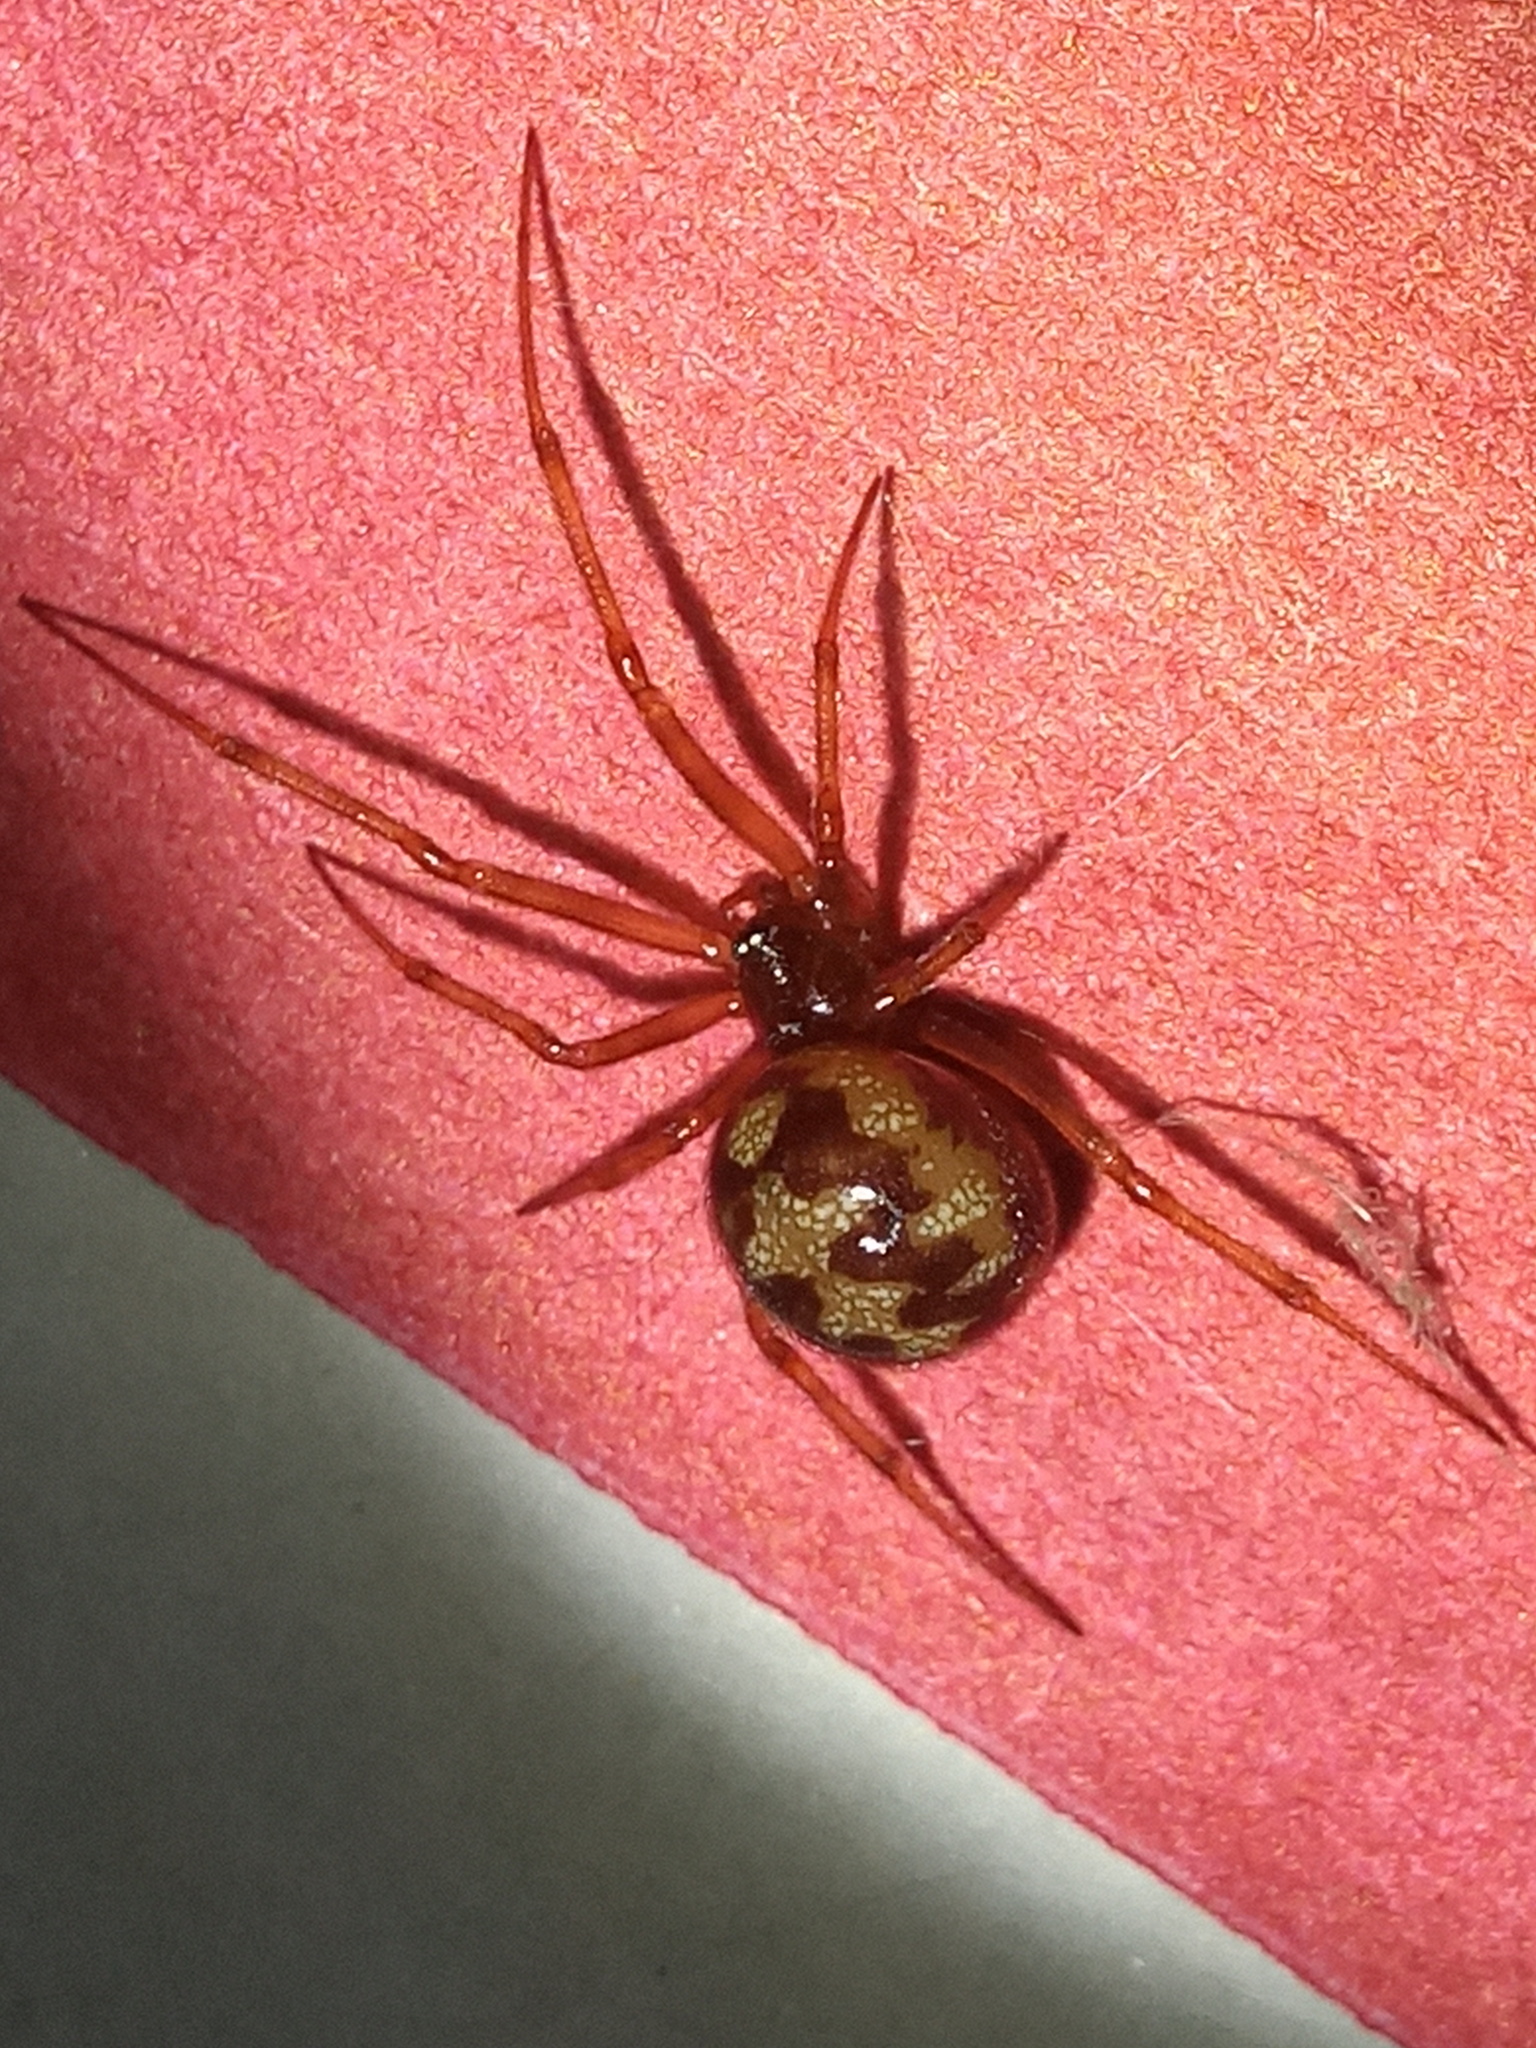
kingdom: Animalia
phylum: Arthropoda
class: Arachnida
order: Araneae
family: Theridiidae
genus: Steatoda
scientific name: Steatoda triangulosa
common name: Triangulate bud spider
